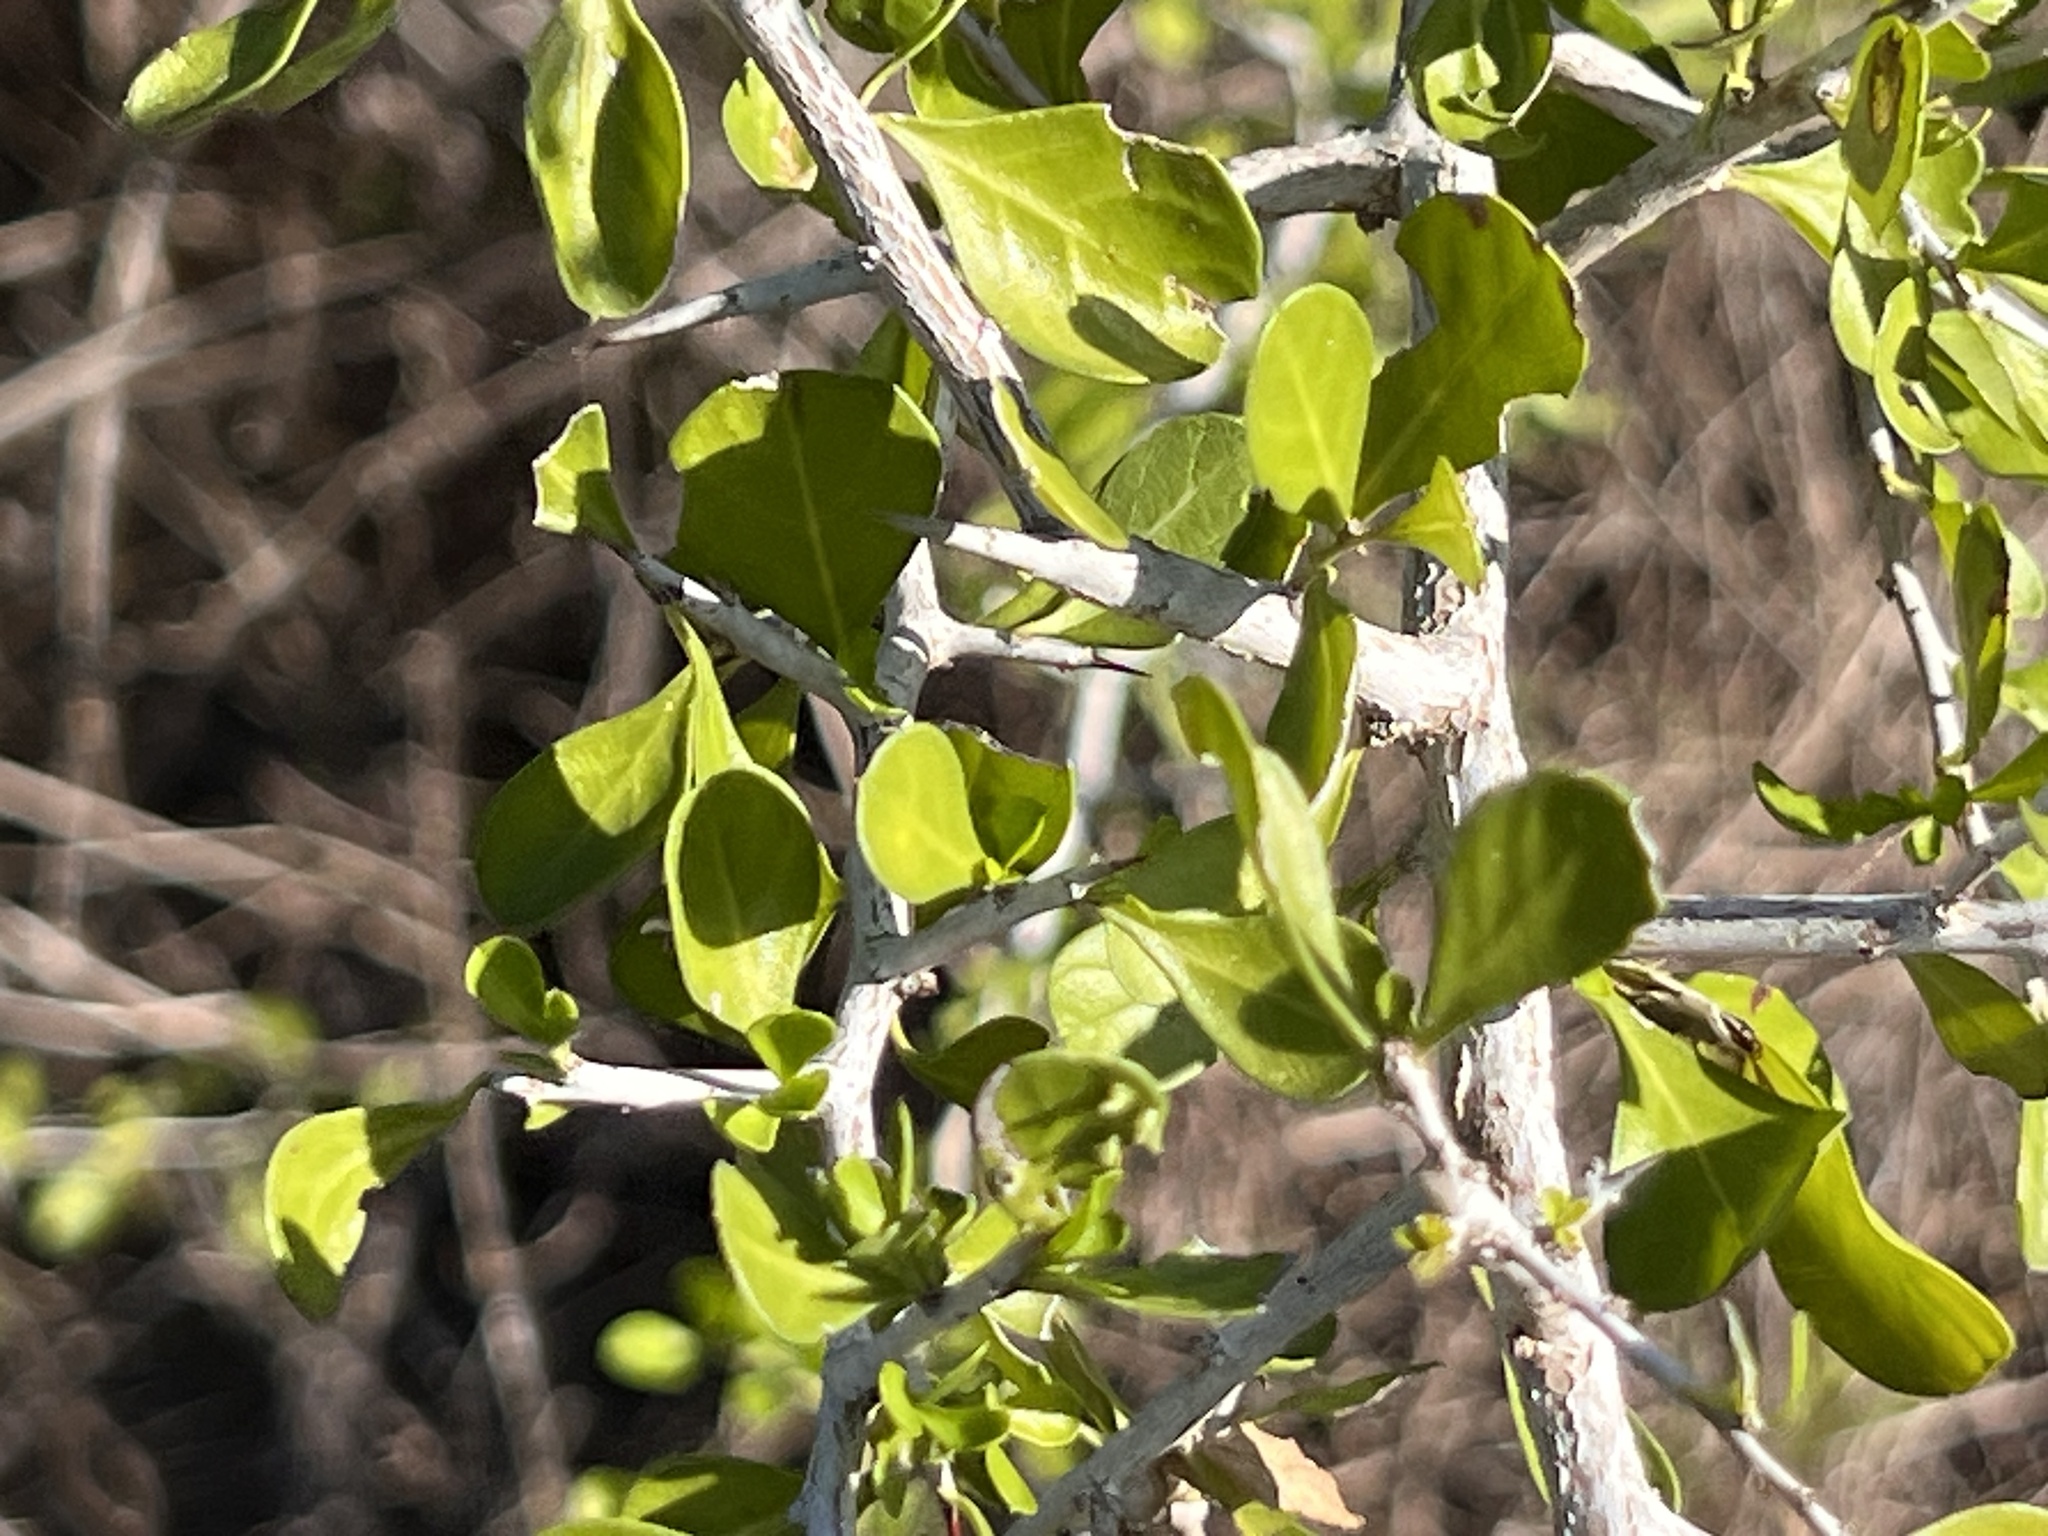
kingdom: Plantae
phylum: Tracheophyta
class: Magnoliopsida
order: Rosales
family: Rhamnaceae
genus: Condalia
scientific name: Condalia hookeri
